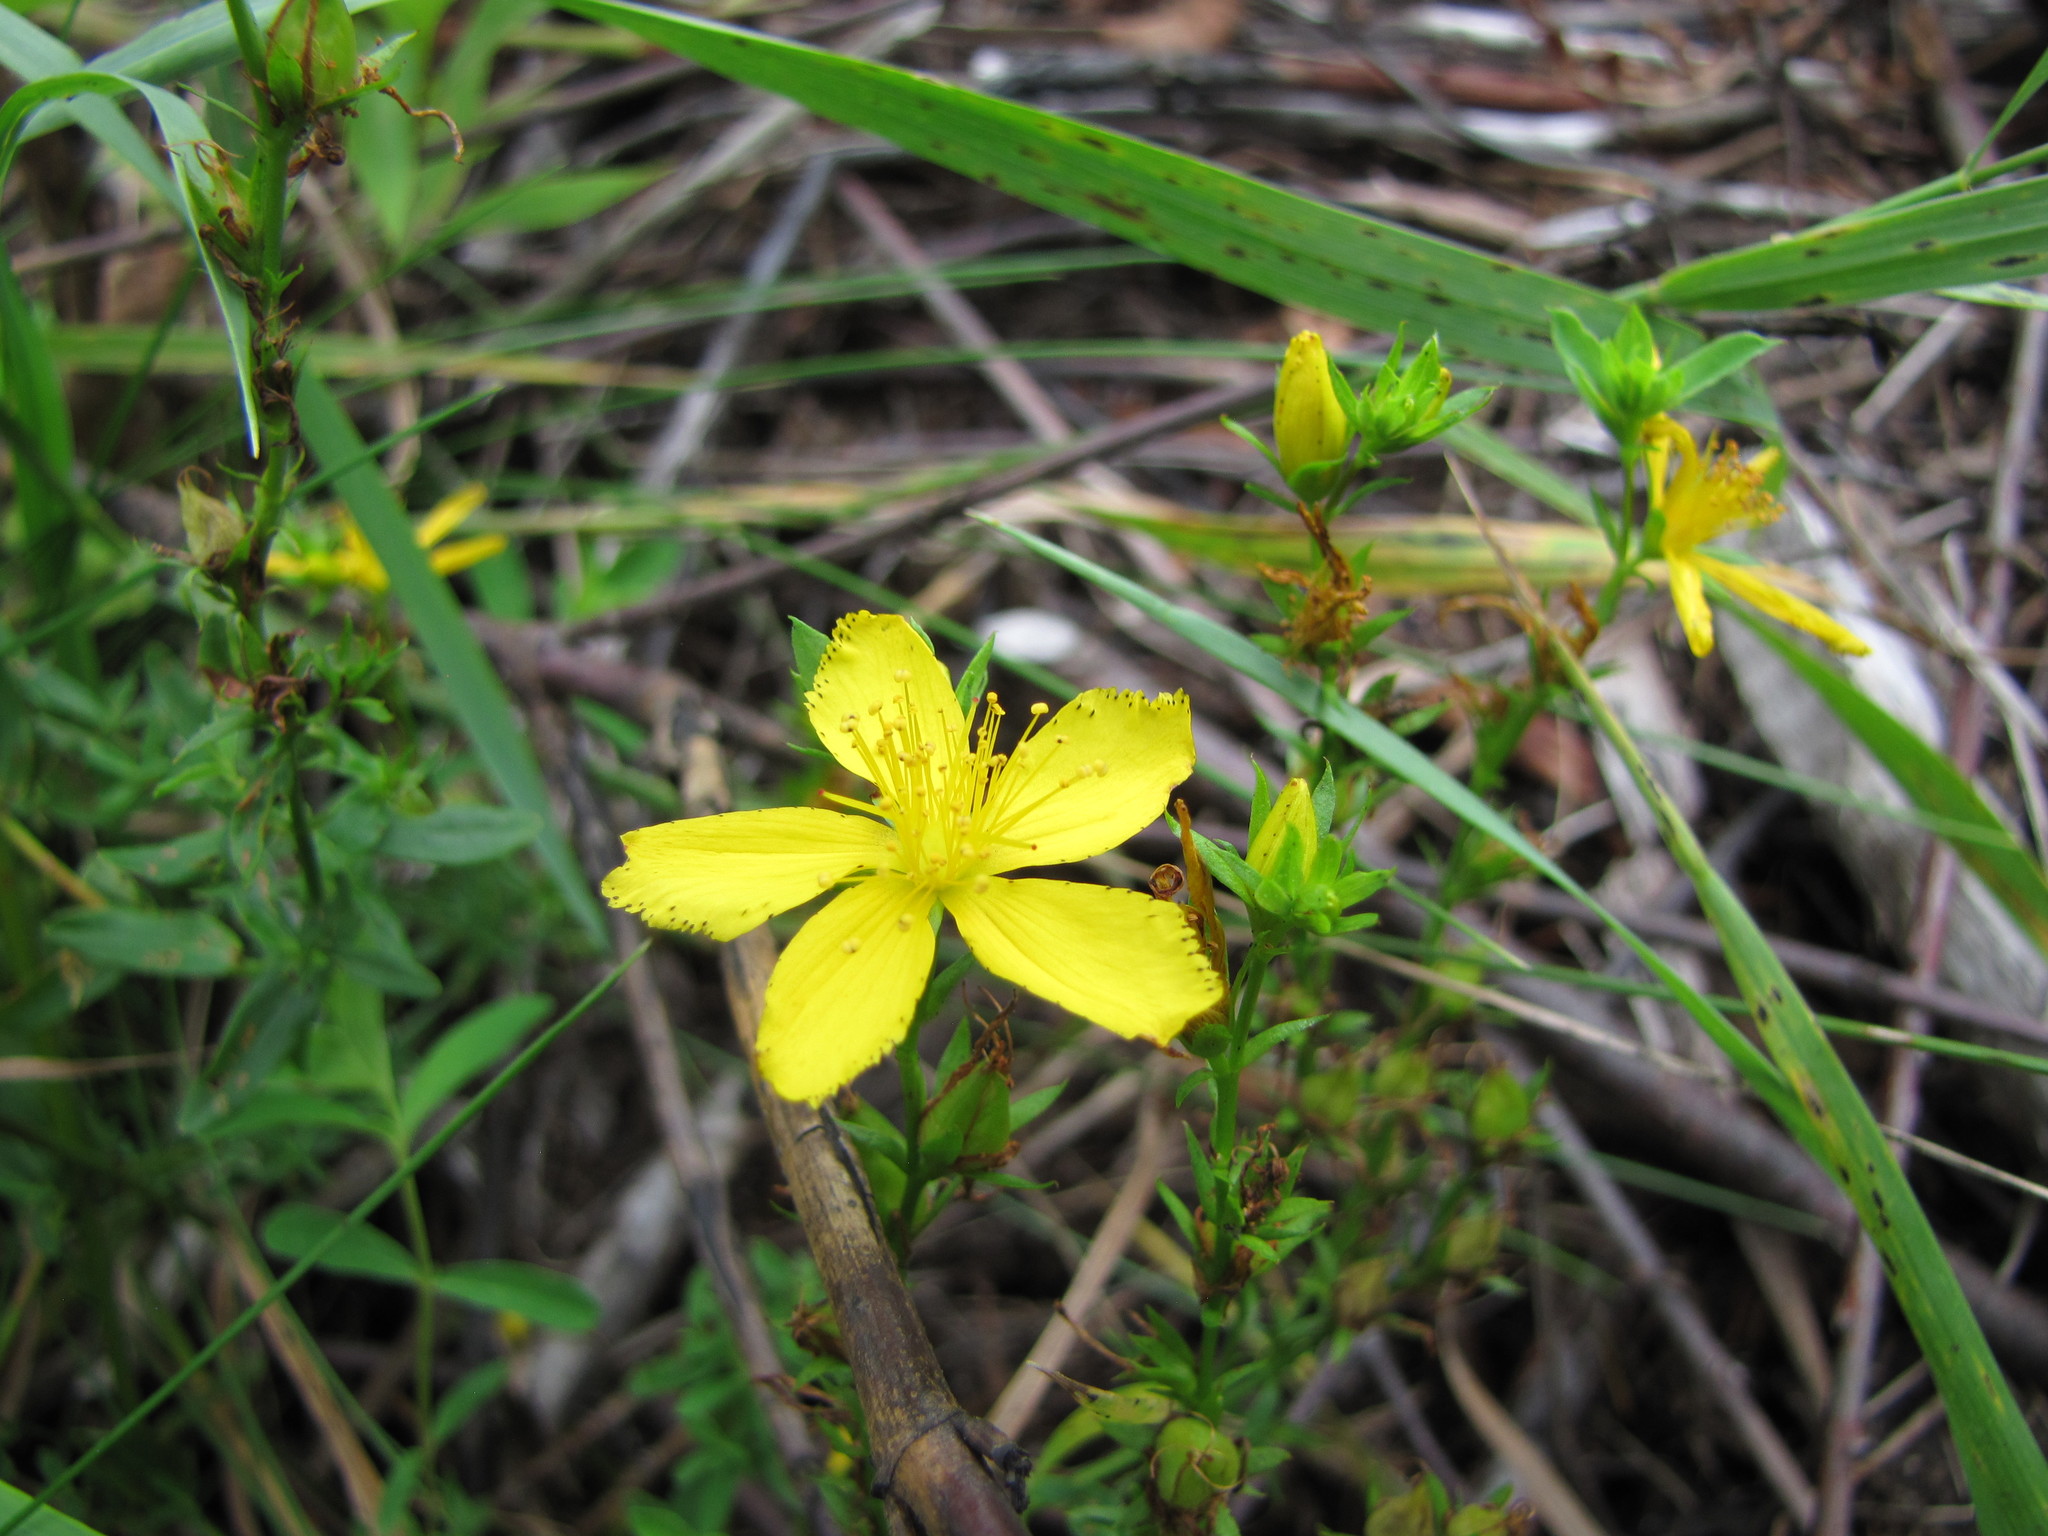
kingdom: Plantae
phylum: Tracheophyta
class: Magnoliopsida
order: Malpighiales
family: Hypericaceae
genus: Hypericum
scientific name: Hypericum perforatum
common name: Common st. johnswort
